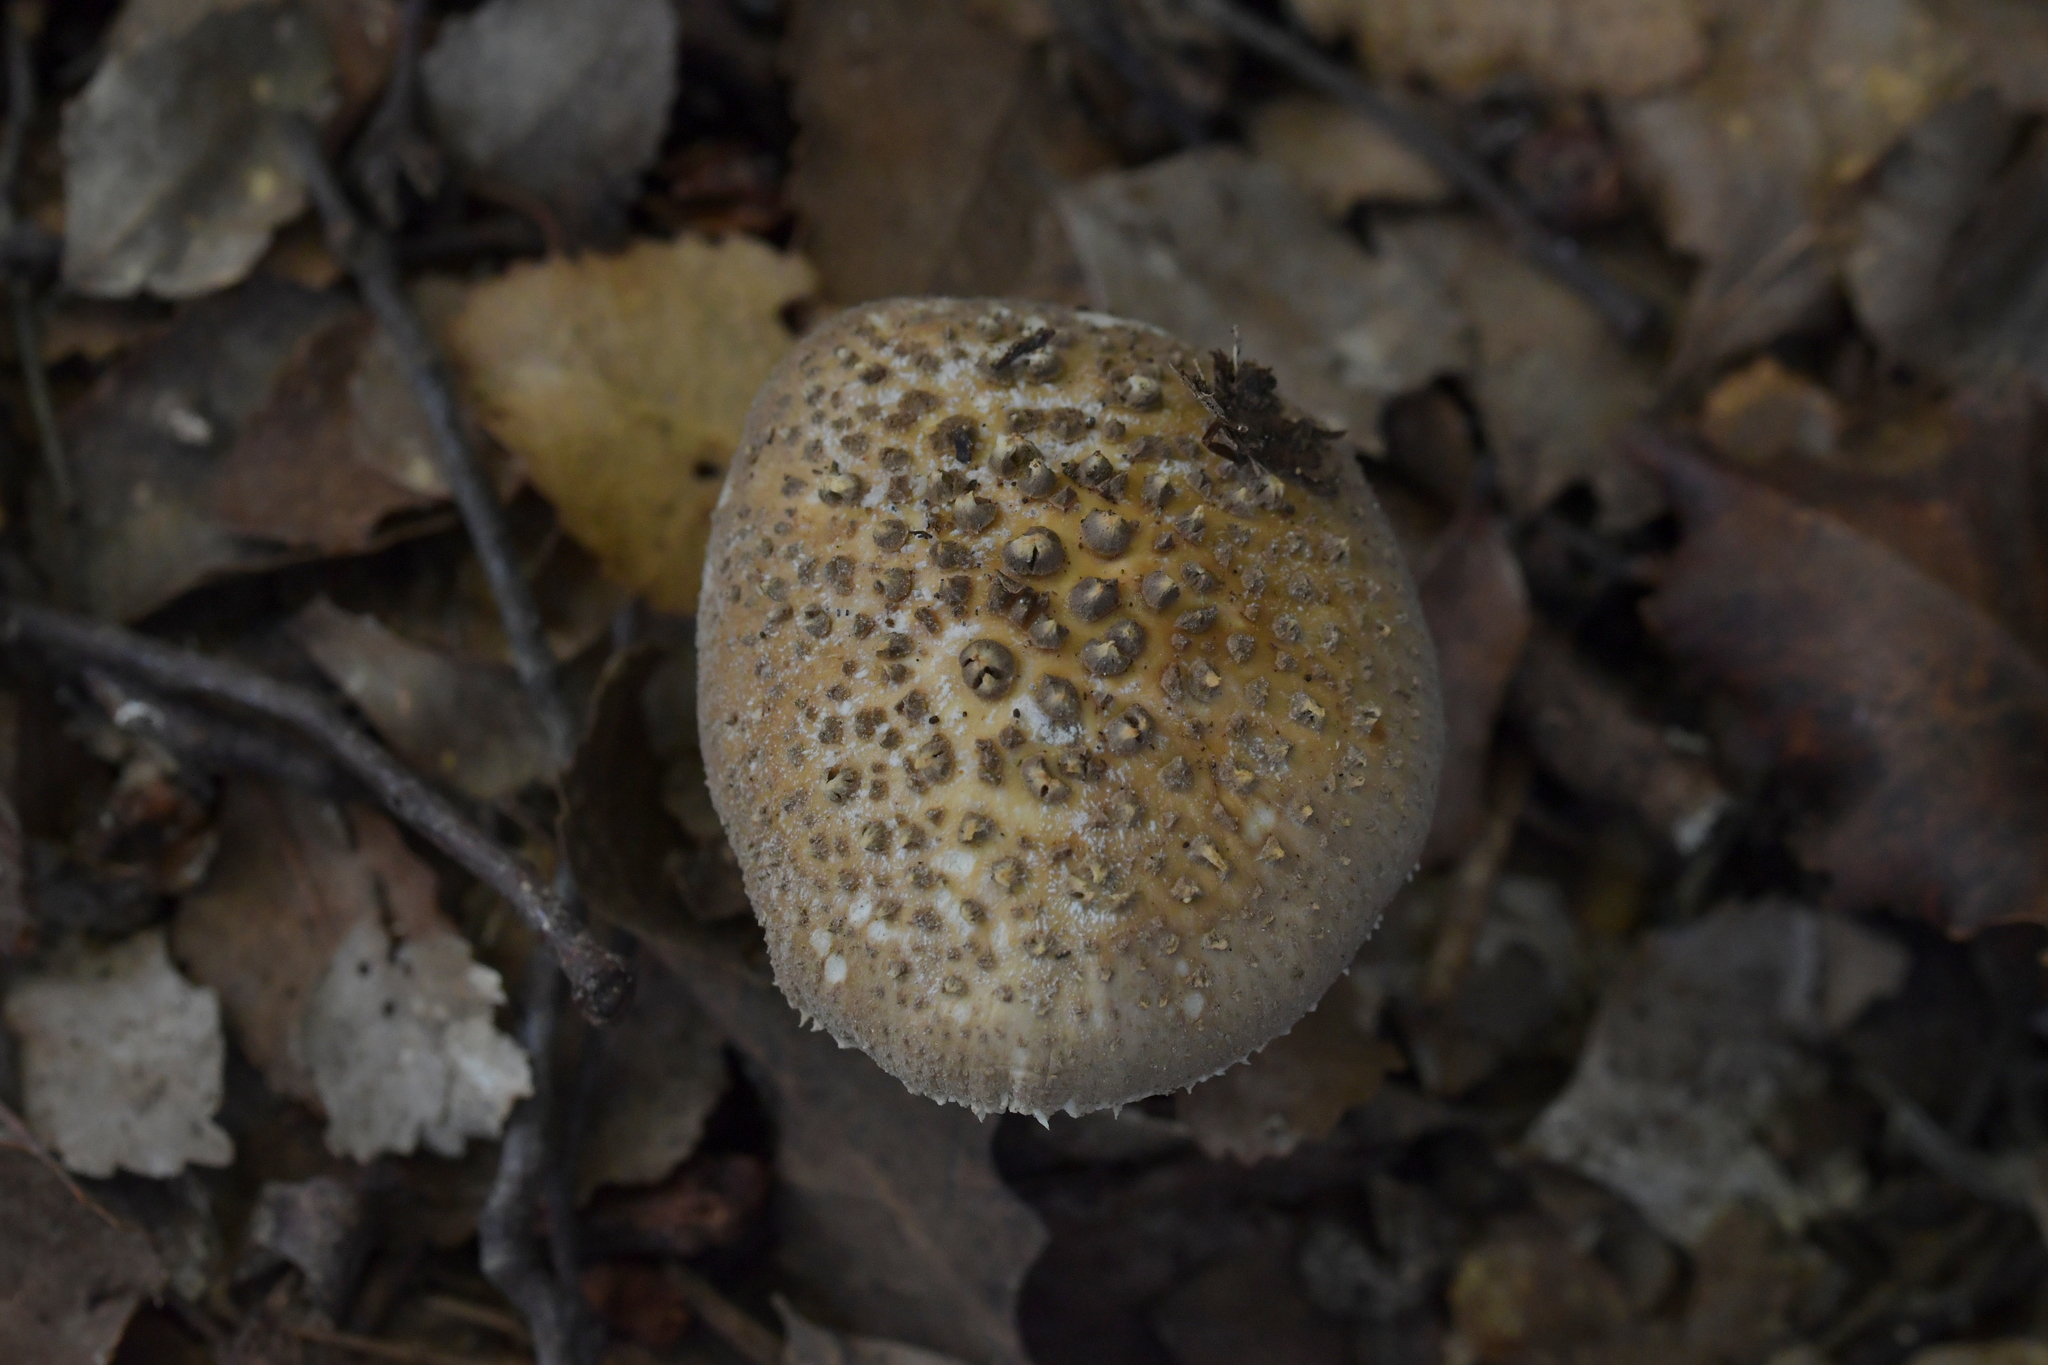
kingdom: Fungi
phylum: Basidiomycota
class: Agaricomycetes
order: Agaricales
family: Amanitaceae
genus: Amanita
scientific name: Amanita australis
